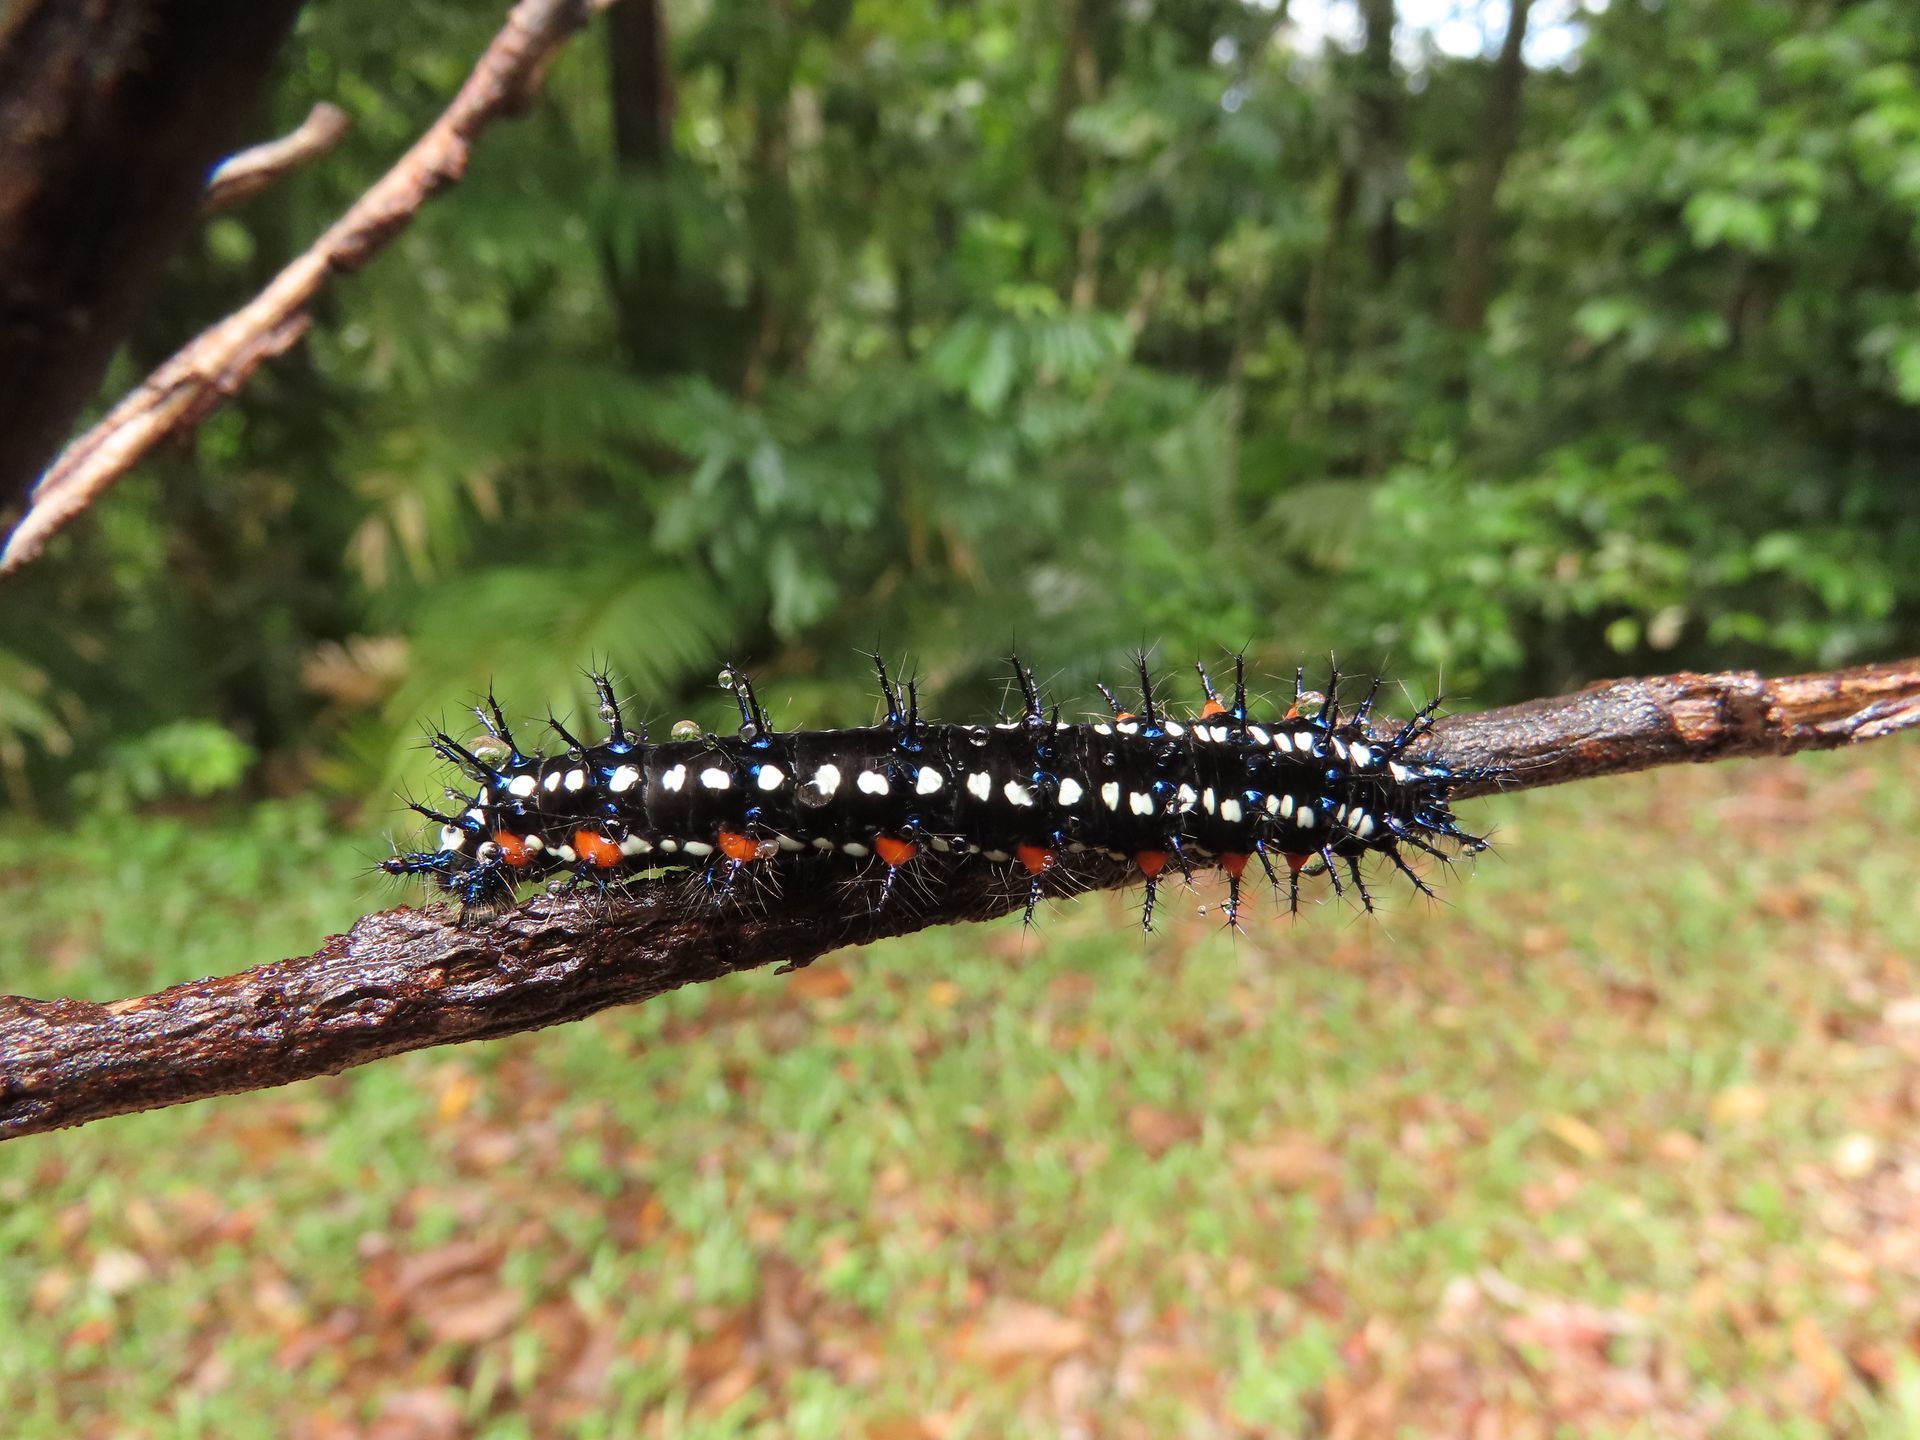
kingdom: Animalia
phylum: Arthropoda
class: Insecta
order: Lepidoptera
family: Nymphalidae
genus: Doleschallia
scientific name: Doleschallia bisaltide
